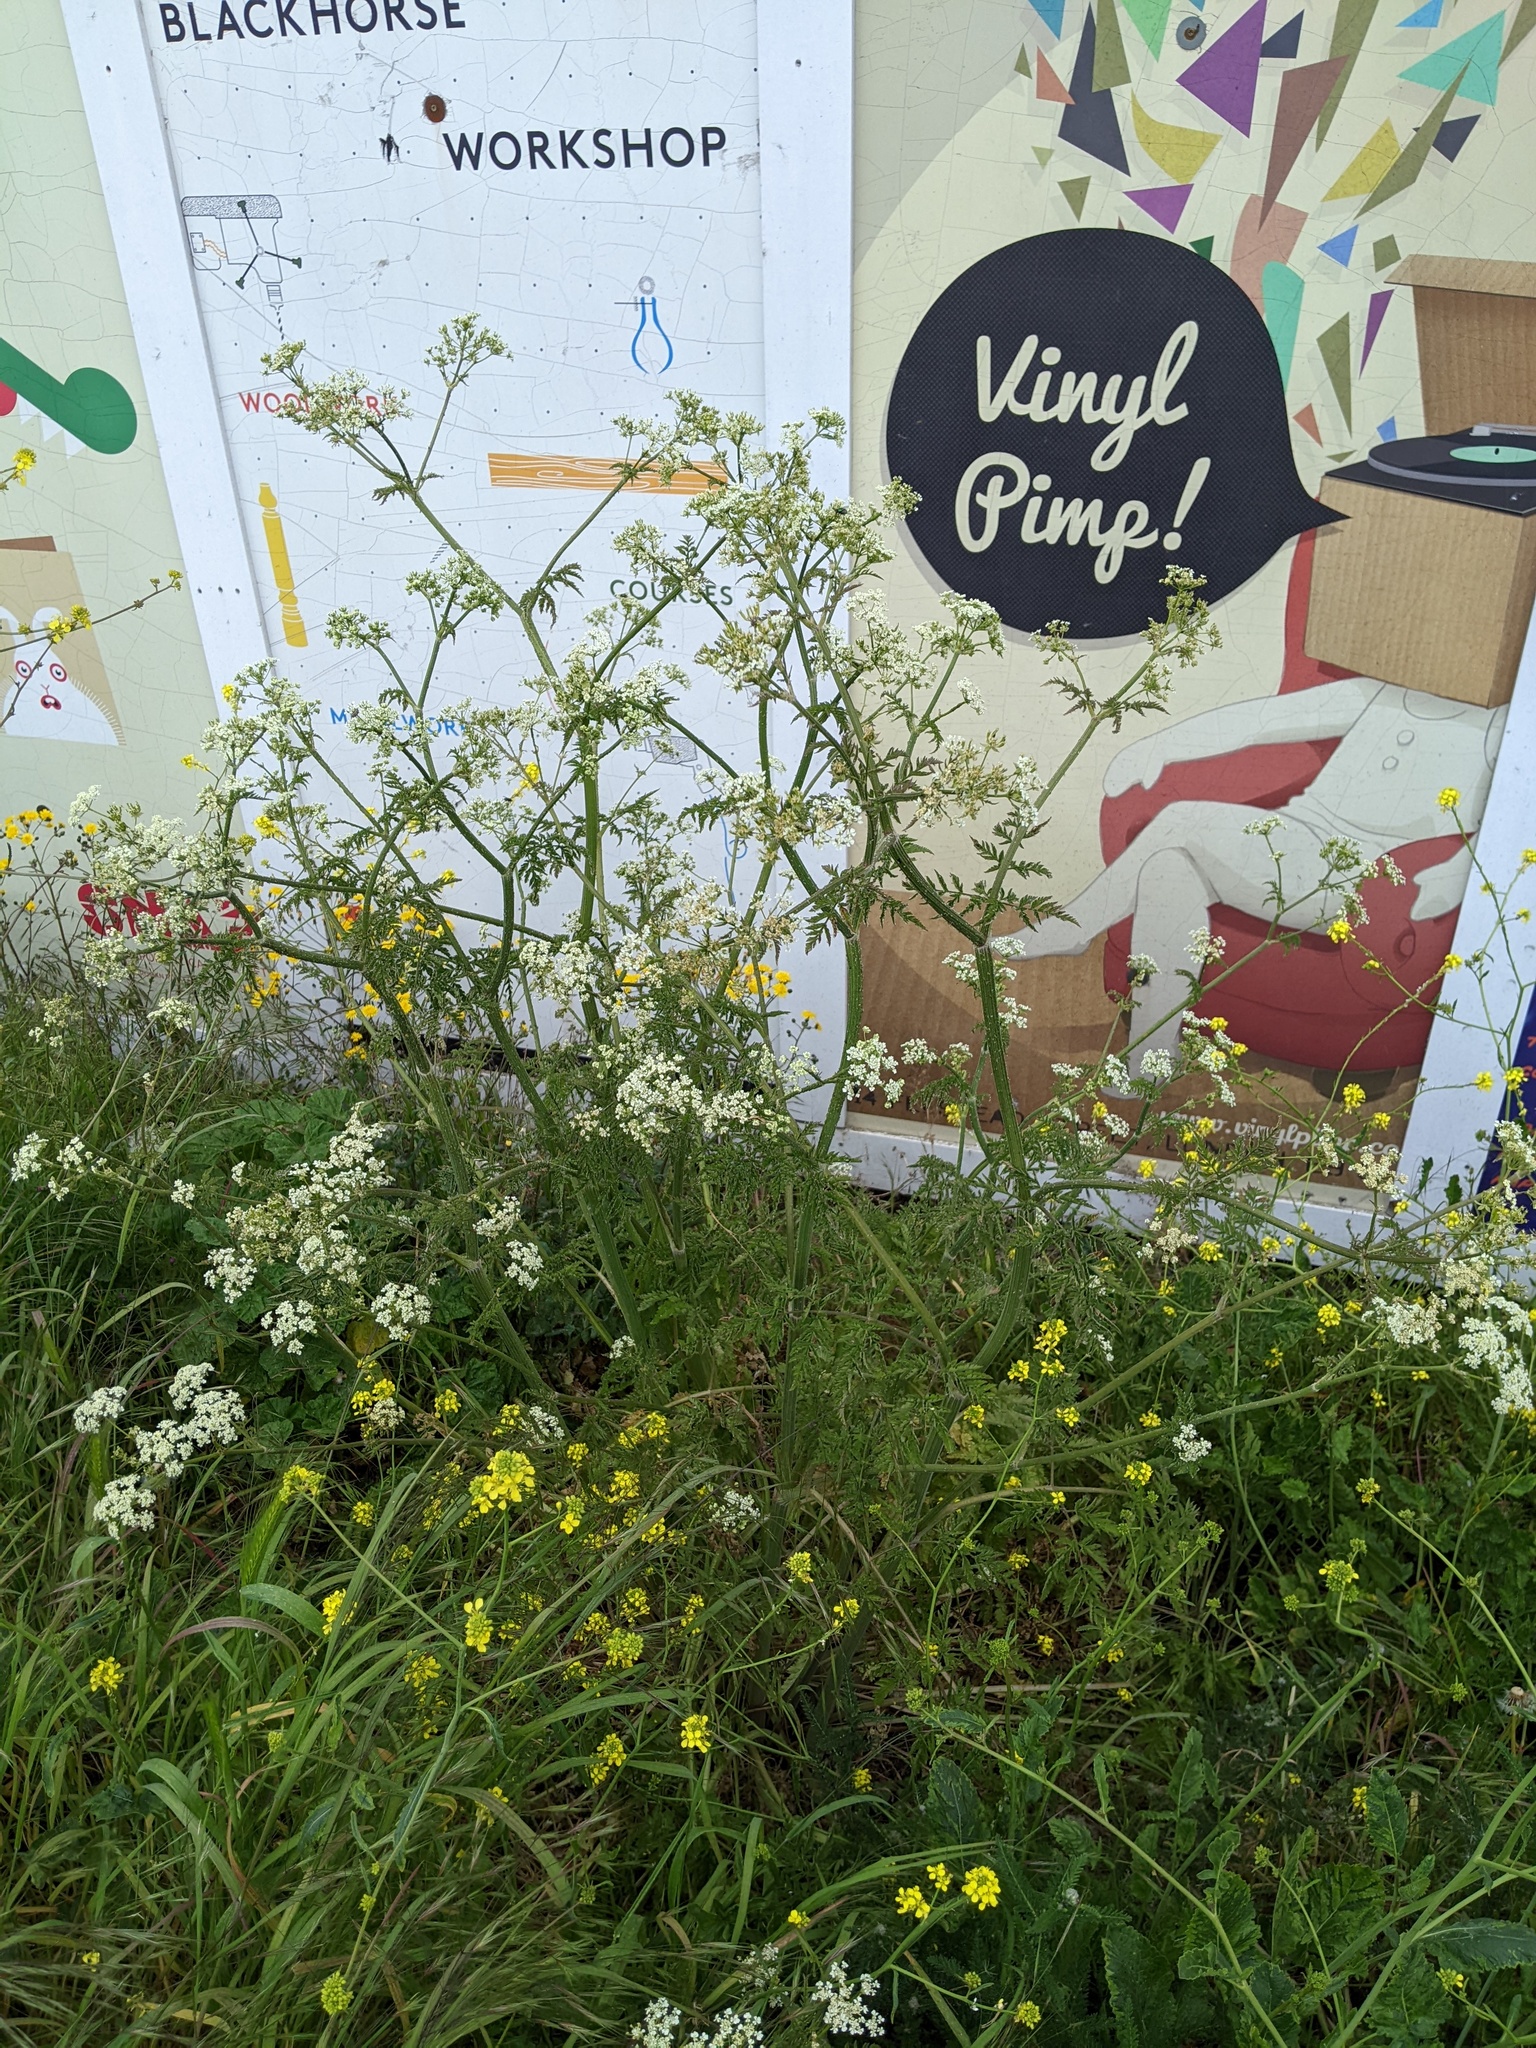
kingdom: Plantae
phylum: Tracheophyta
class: Magnoliopsida
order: Apiales
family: Apiaceae
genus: Anthriscus
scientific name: Anthriscus sylvestris
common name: Cow parsley
